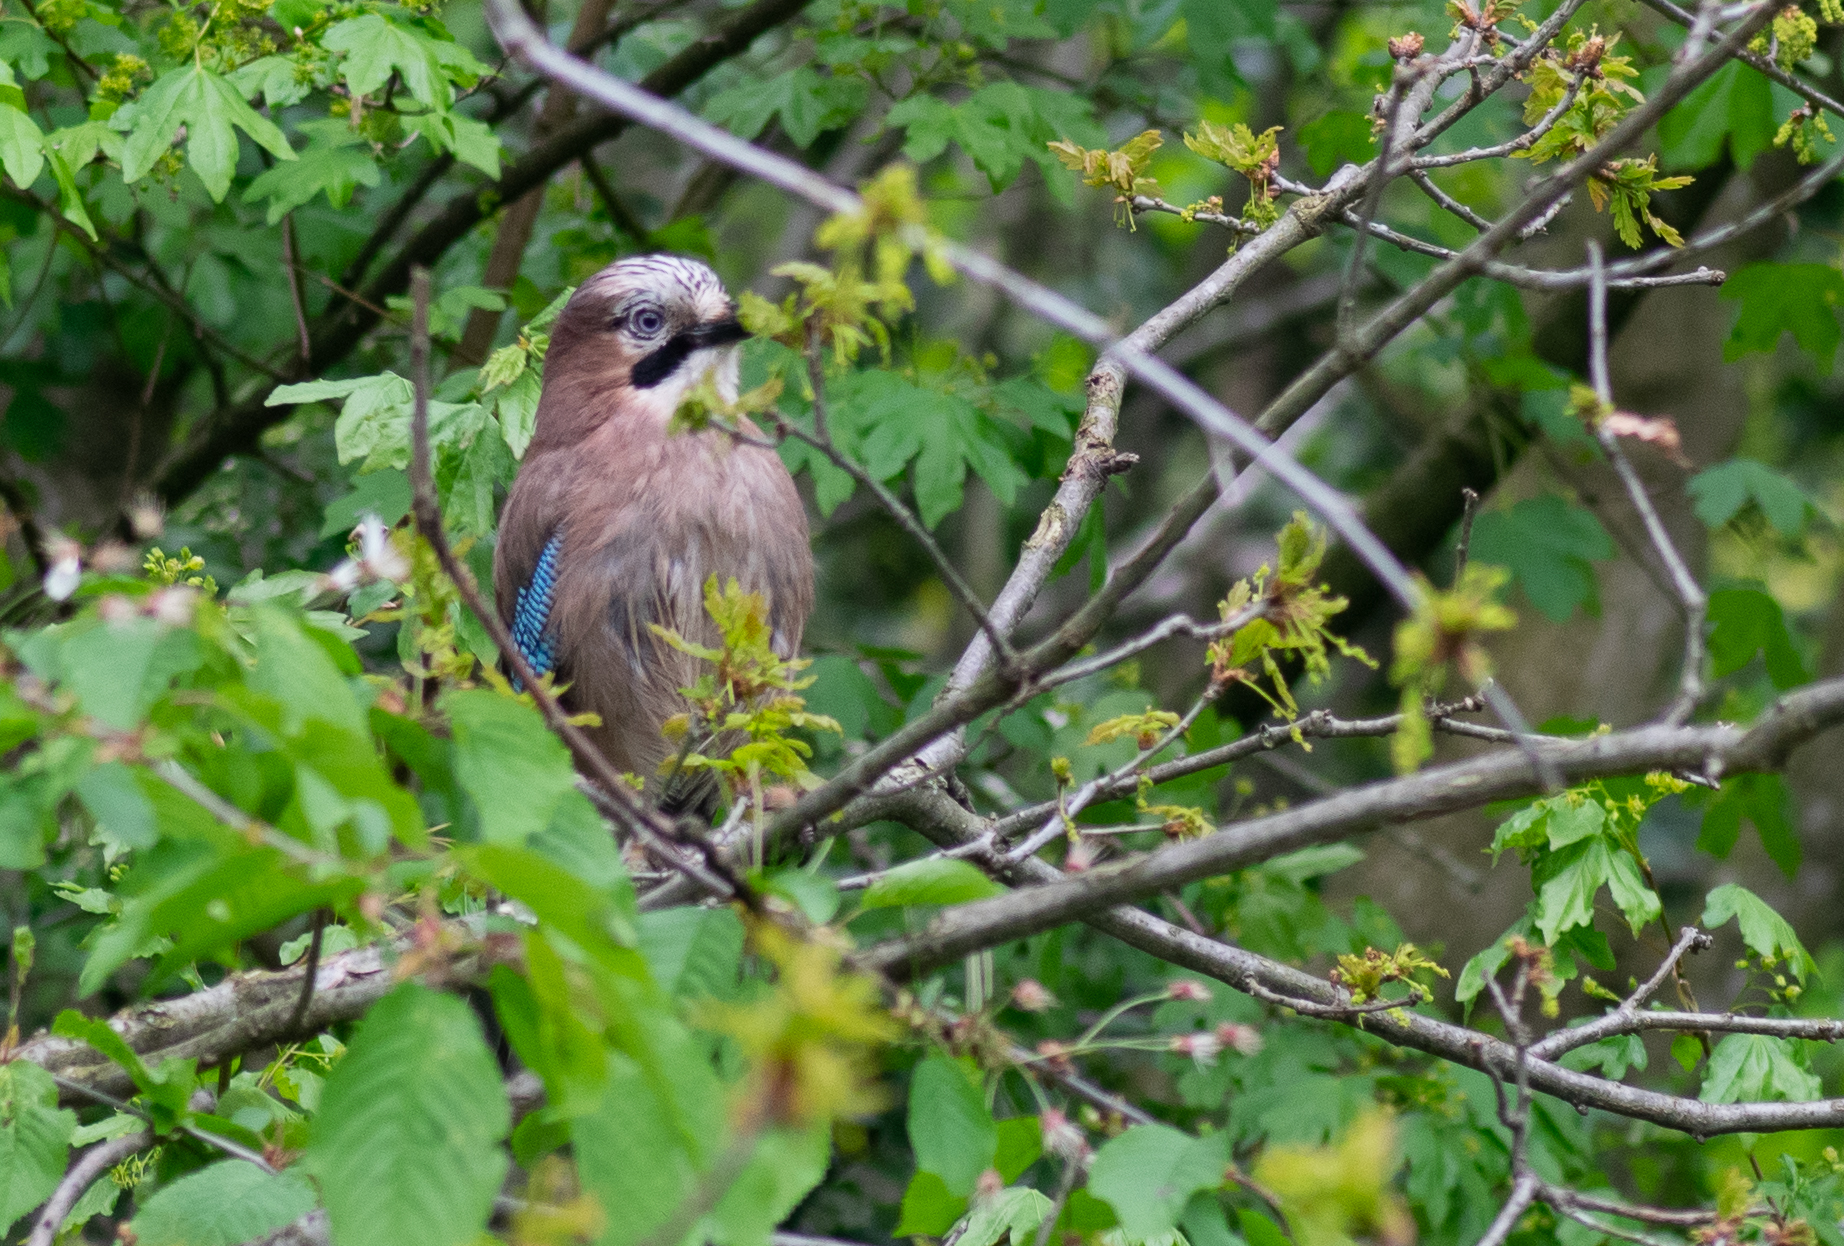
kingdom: Animalia
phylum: Chordata
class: Aves
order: Passeriformes
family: Corvidae
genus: Garrulus
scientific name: Garrulus glandarius
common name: Eurasian jay
